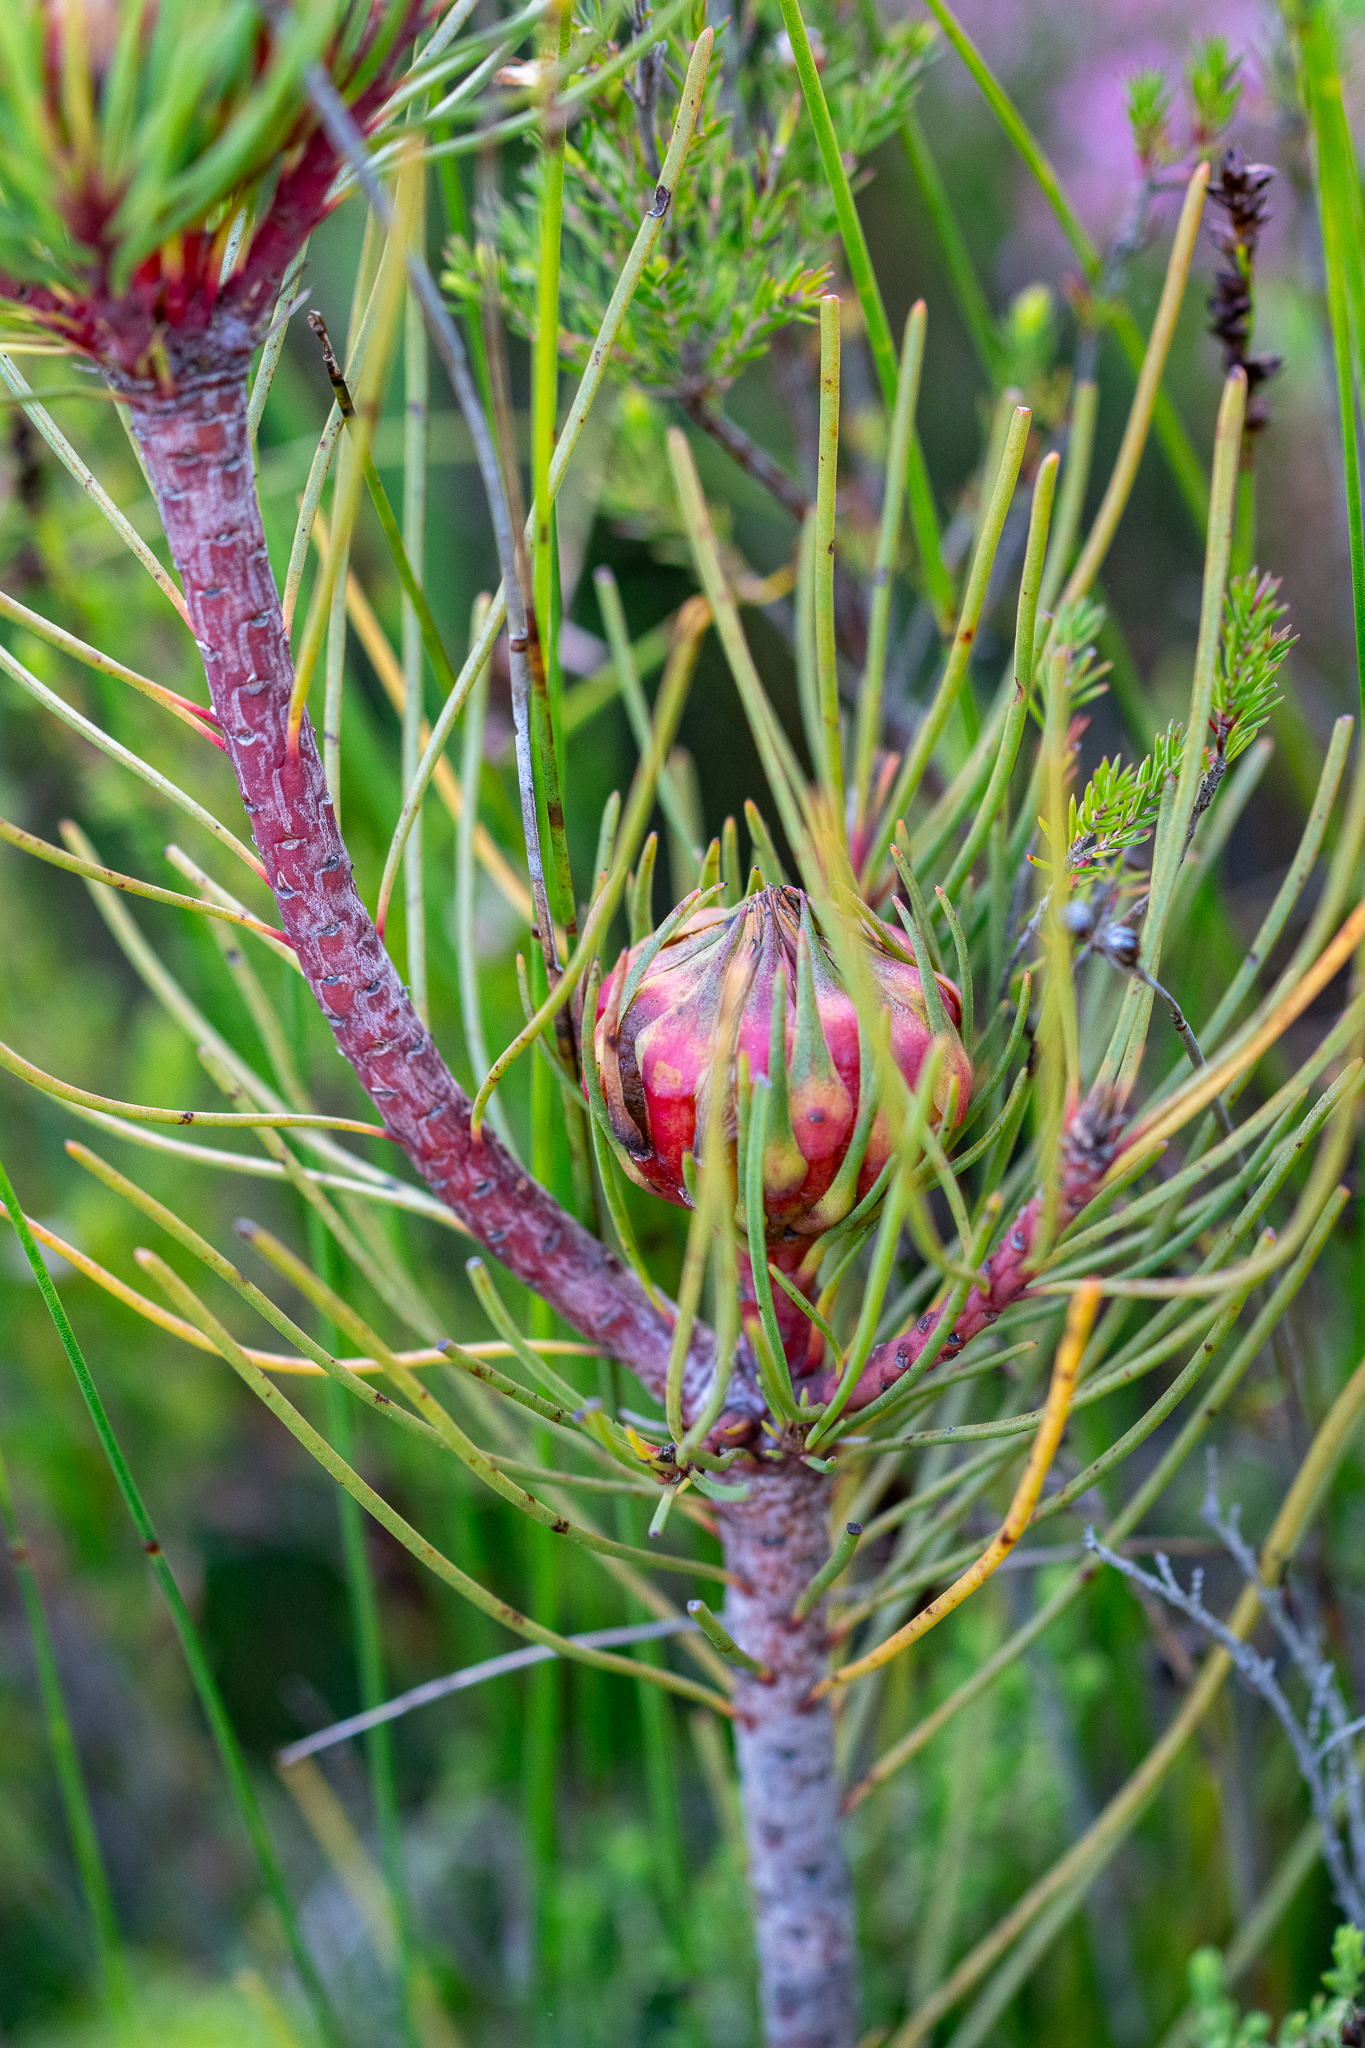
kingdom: Plantae
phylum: Tracheophyta
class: Magnoliopsida
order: Proteales
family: Proteaceae
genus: Aulax
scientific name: Aulax cancellata
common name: Channel-leaf featherbush
